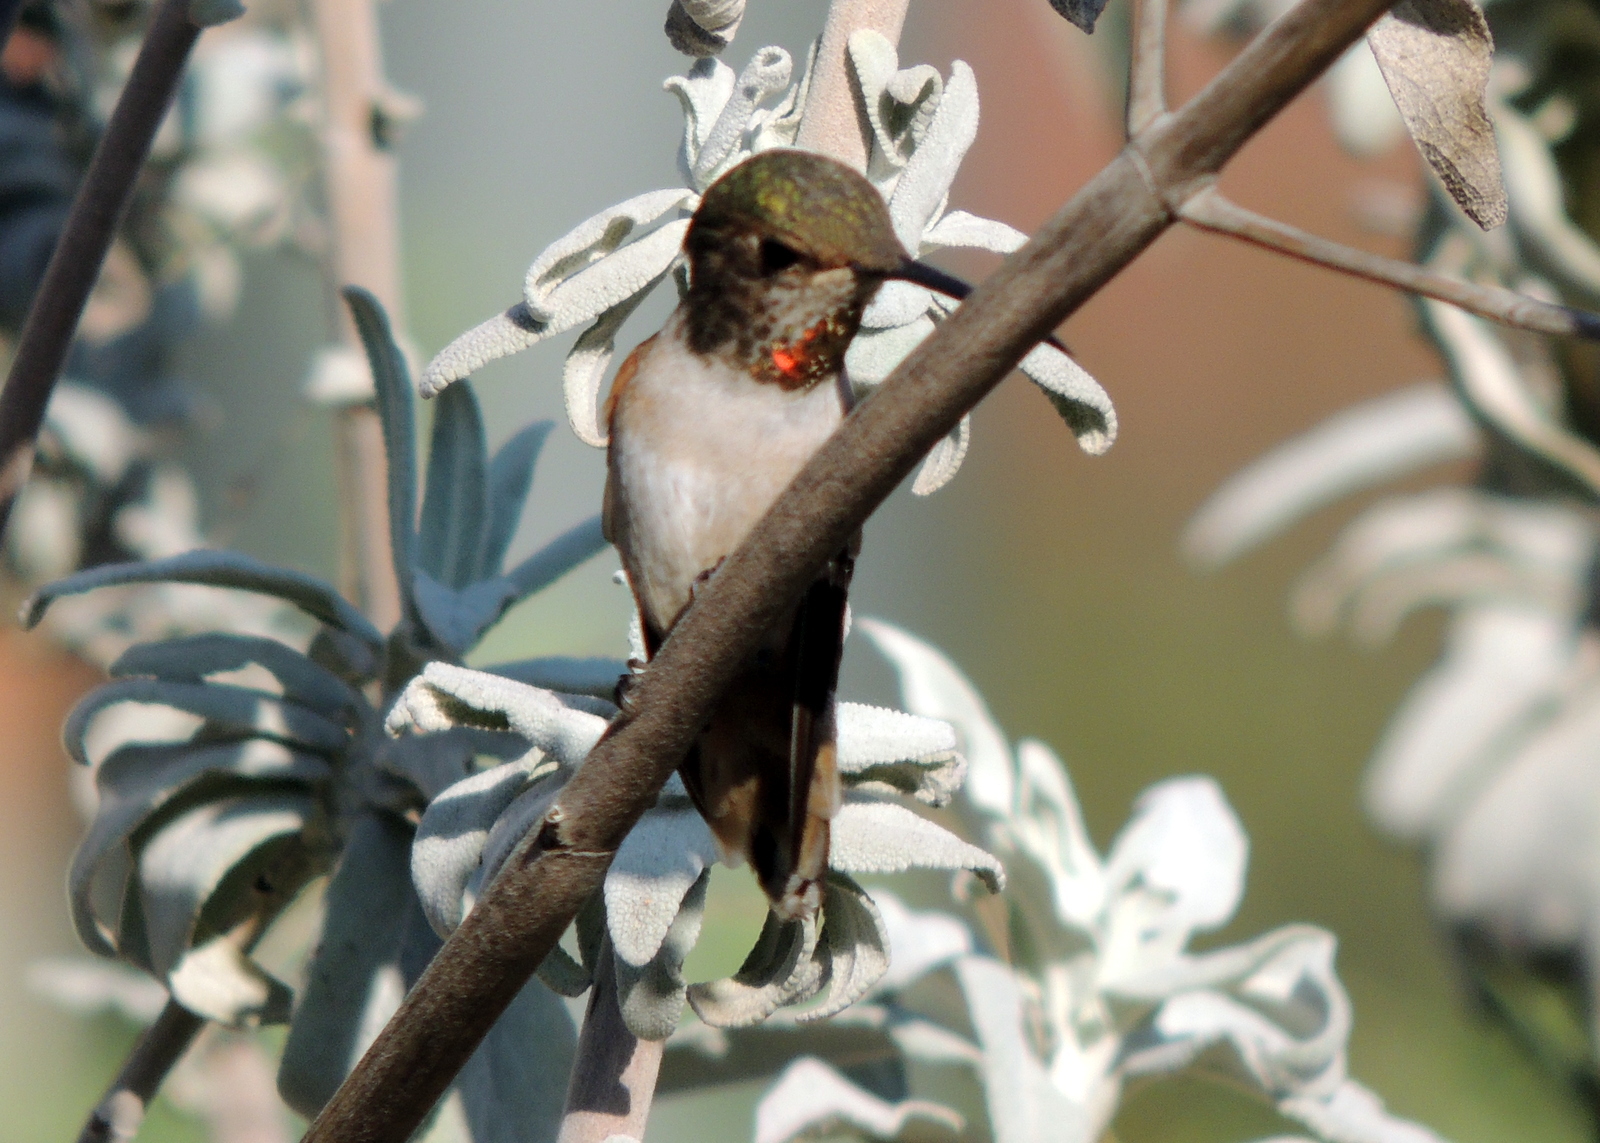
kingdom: Animalia
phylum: Chordata
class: Aves
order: Apodiformes
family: Trochilidae
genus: Selasphorus
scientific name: Selasphorus sasin
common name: Allen's hummingbird
